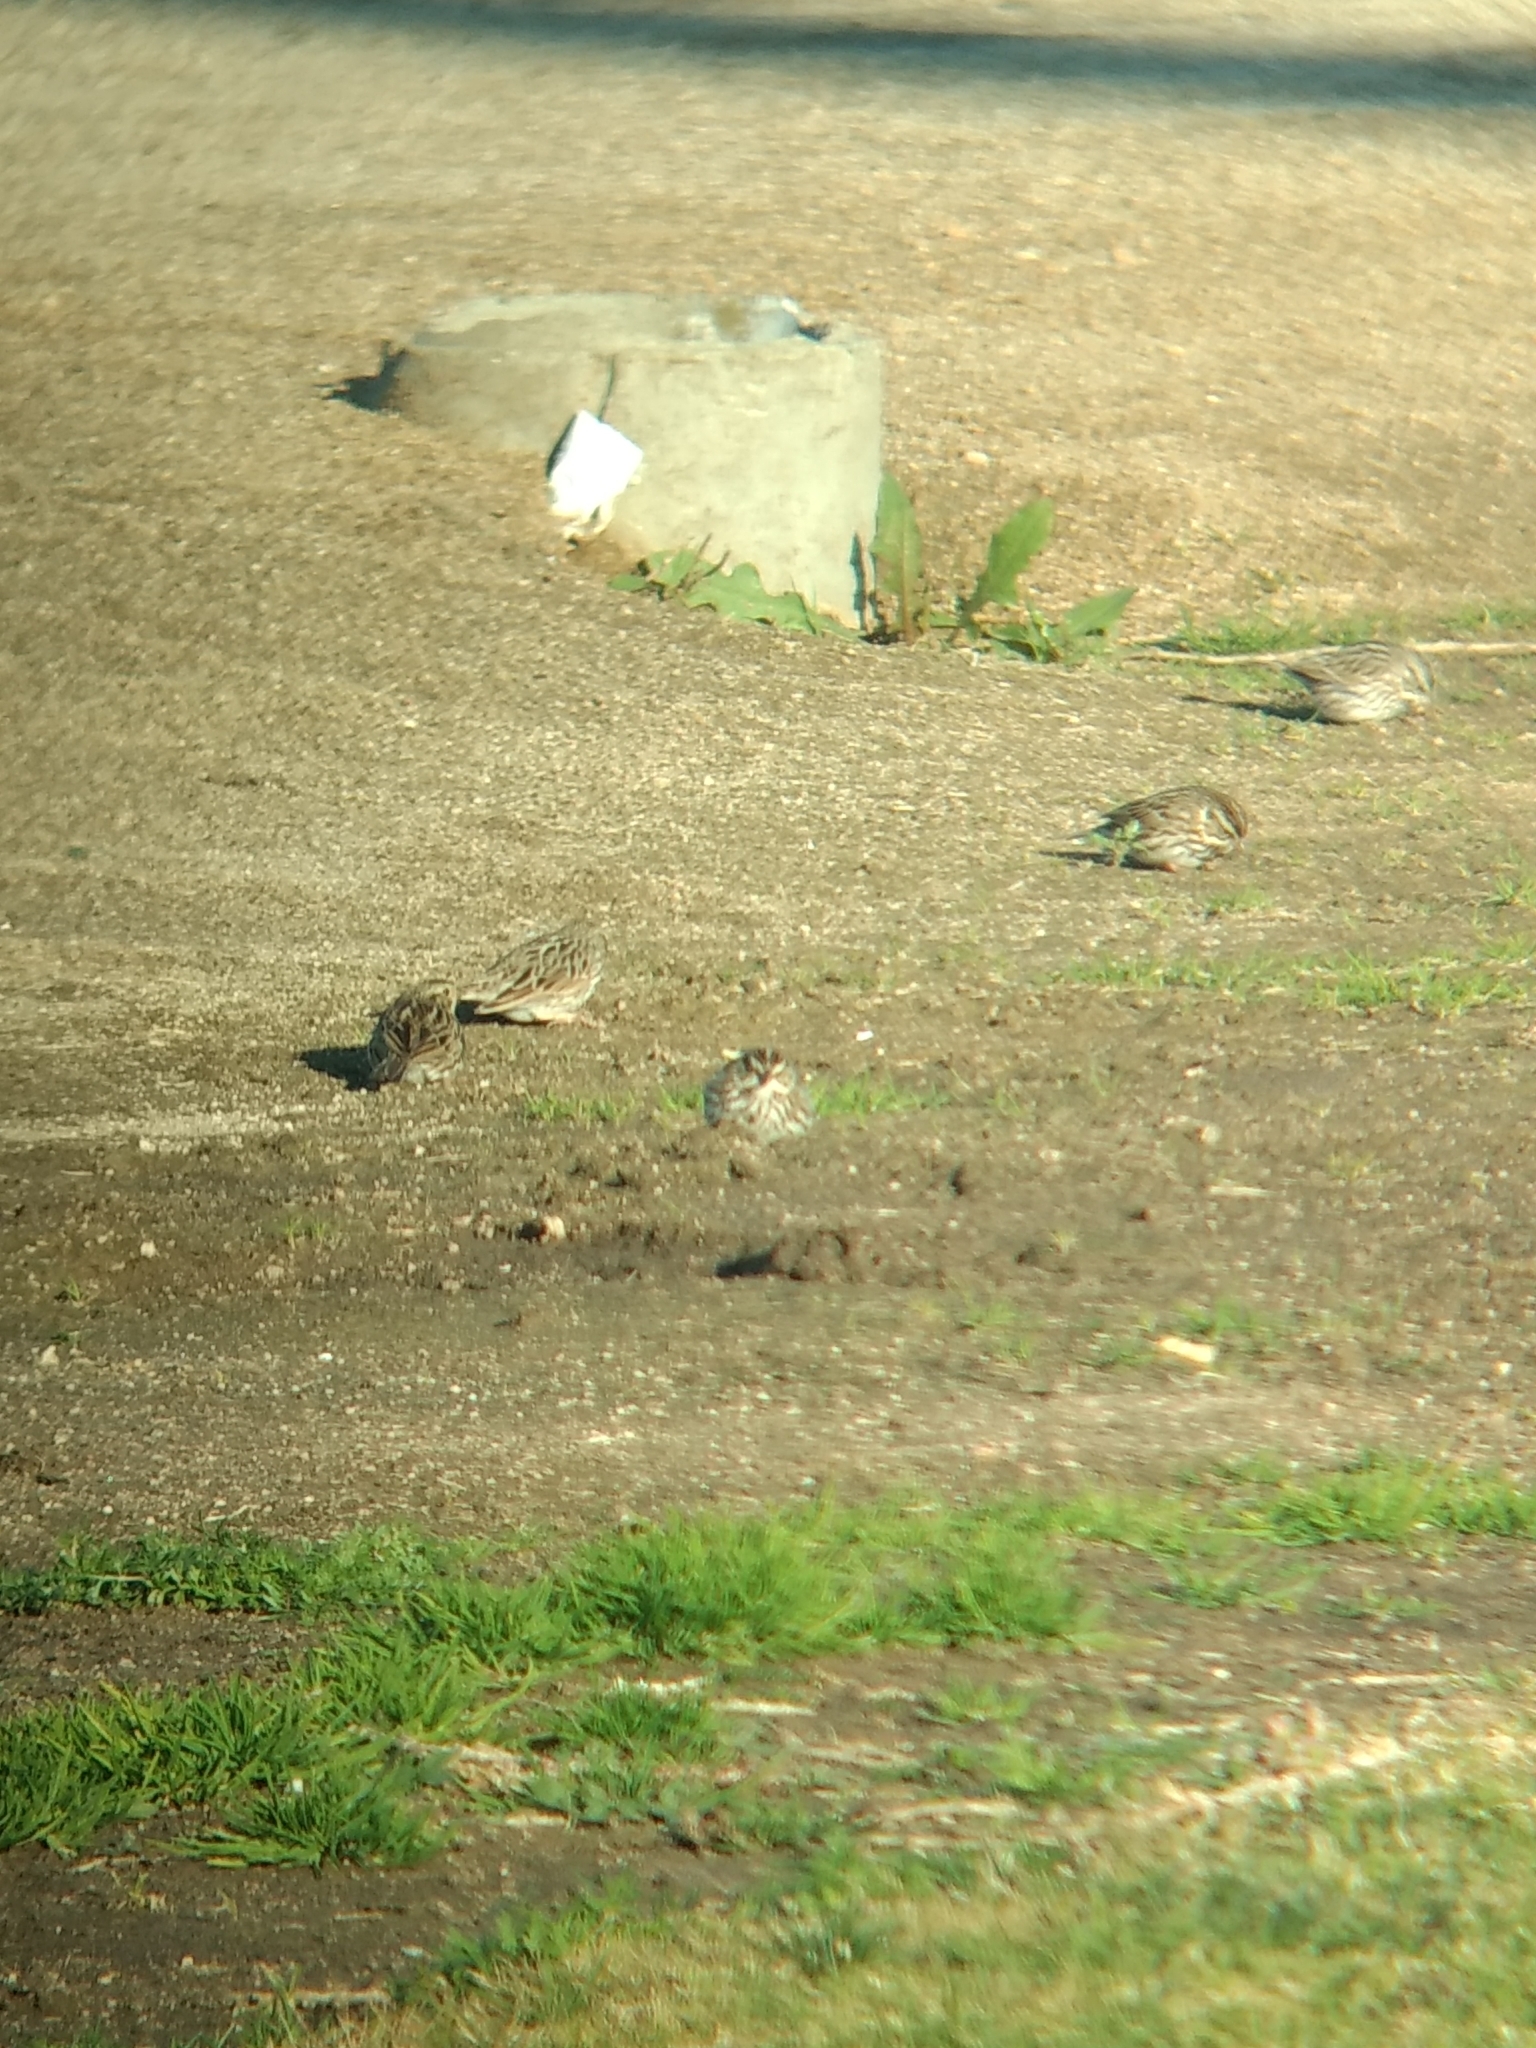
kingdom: Animalia
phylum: Chordata
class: Aves
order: Passeriformes
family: Passerellidae
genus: Passerculus
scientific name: Passerculus sandwichensis
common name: Savannah sparrow
